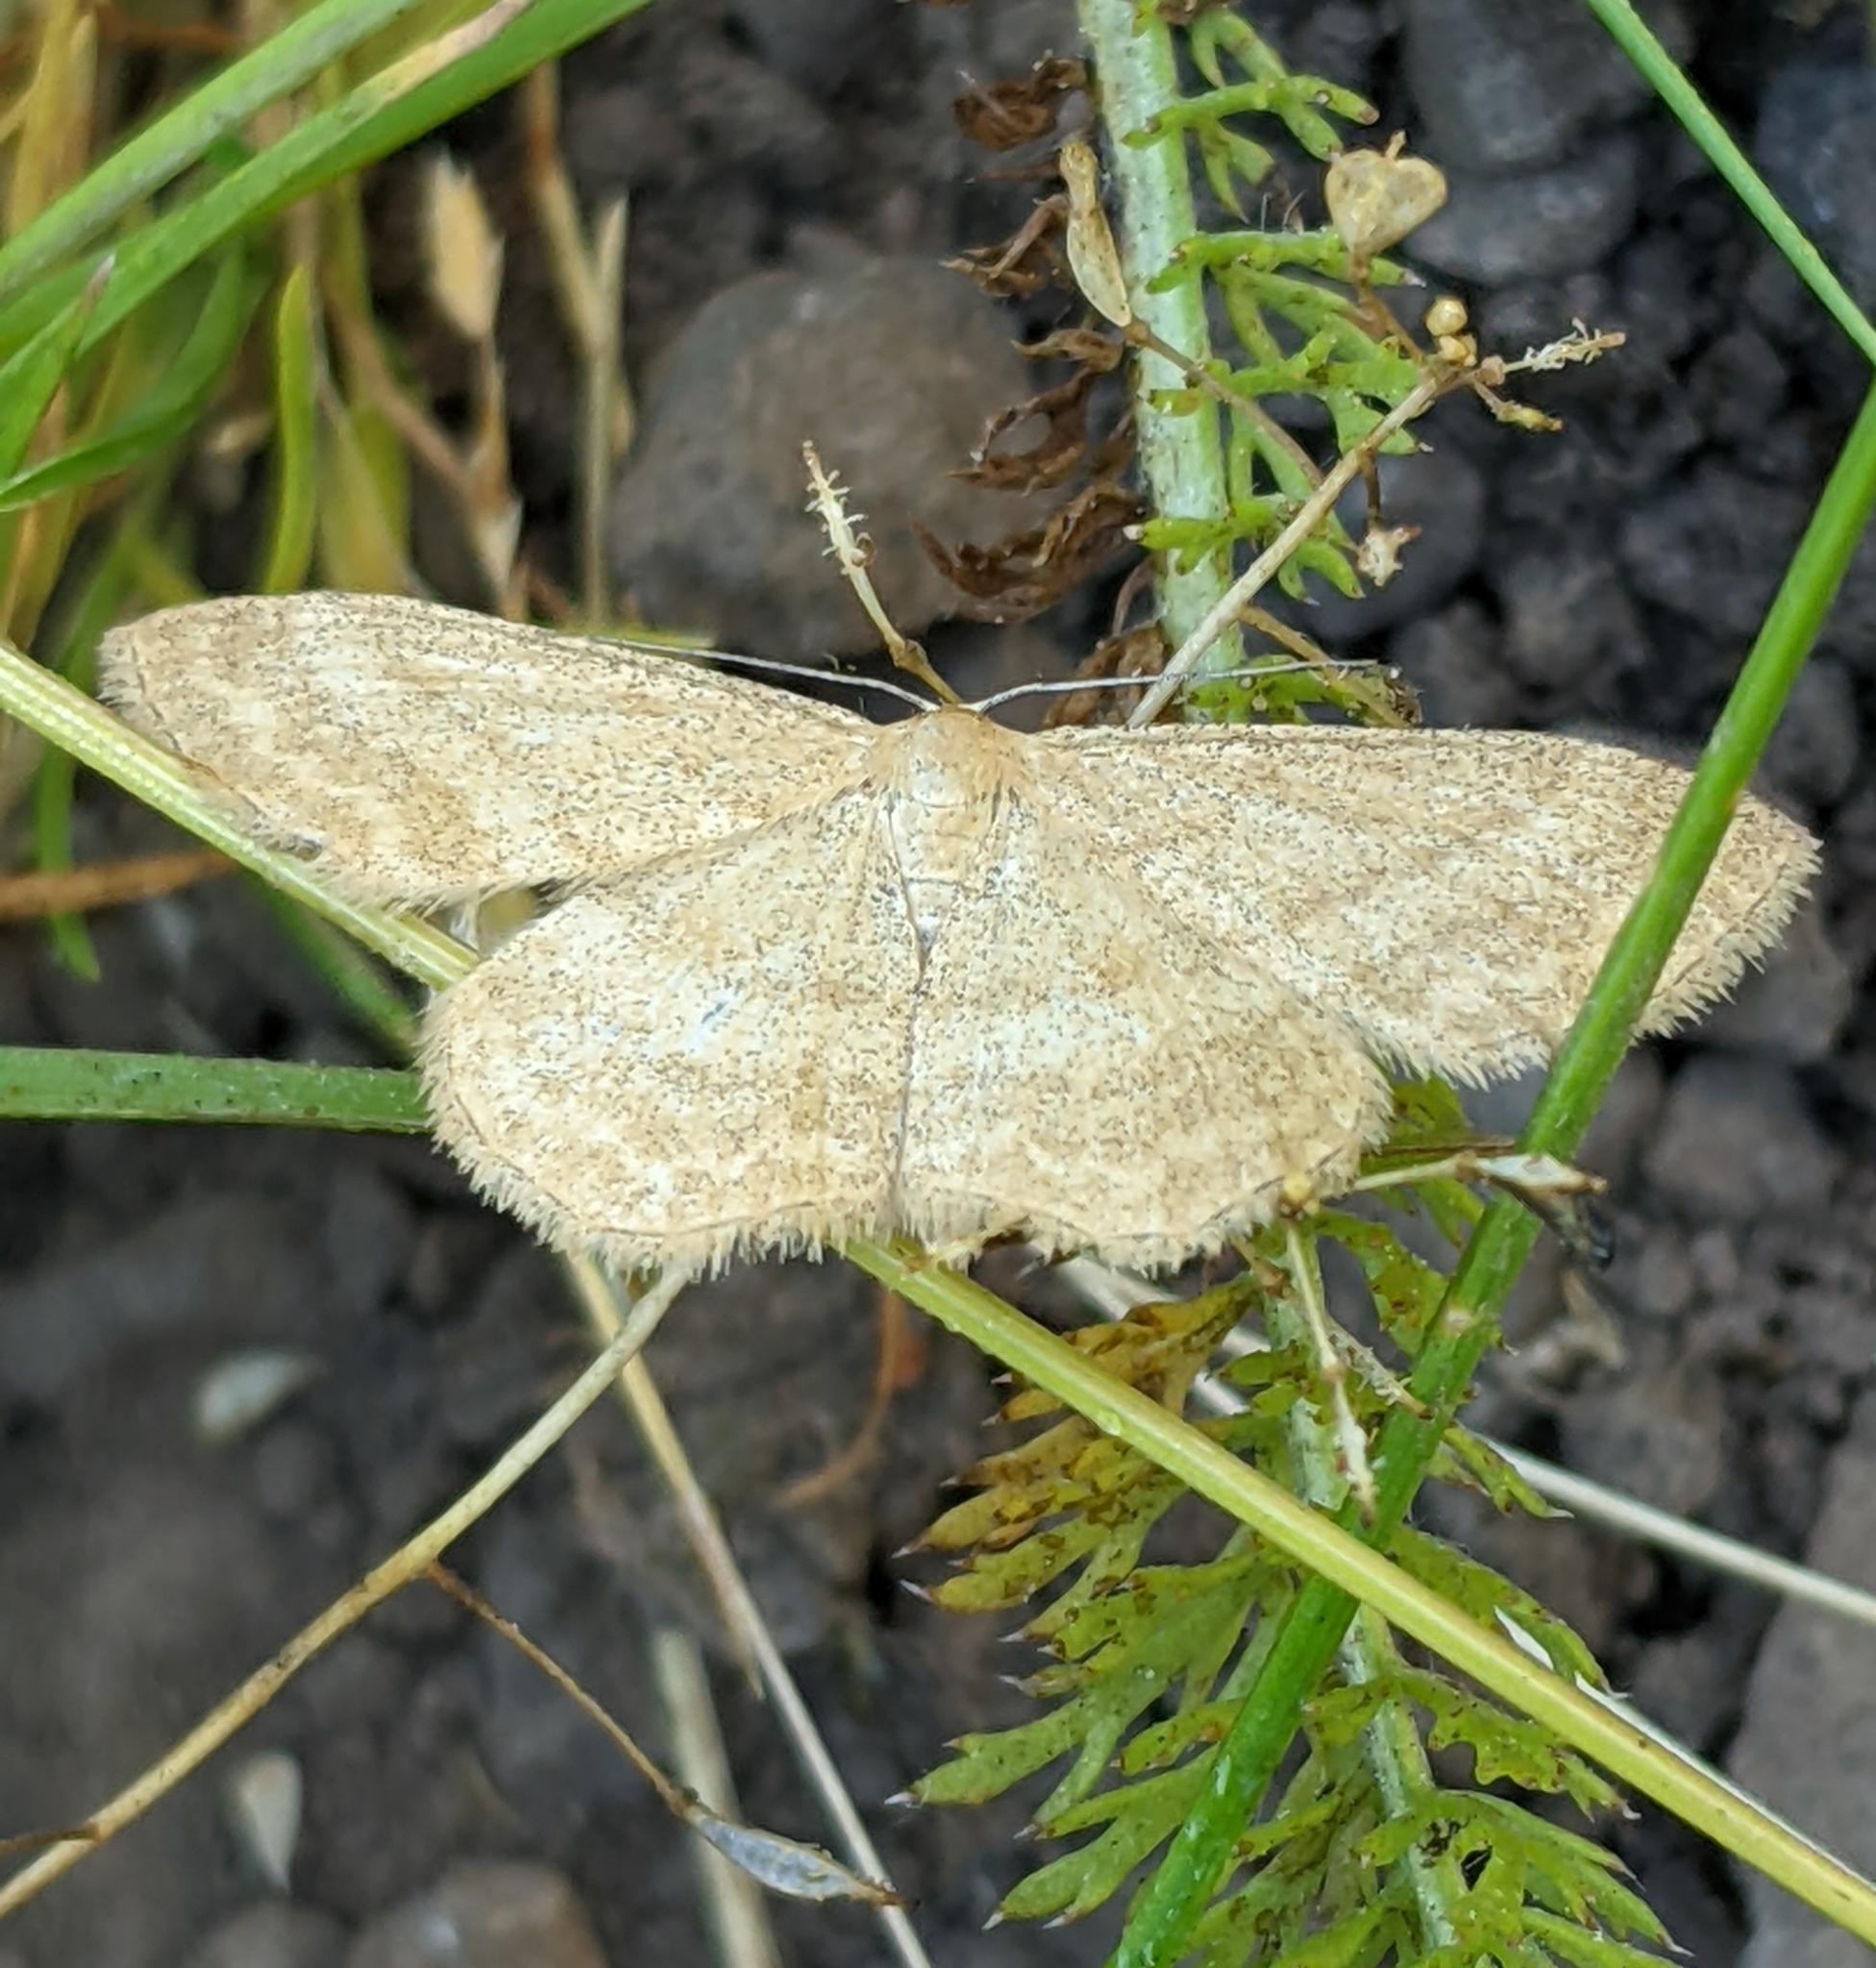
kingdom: Animalia
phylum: Arthropoda
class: Insecta
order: Lepidoptera
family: Geometridae
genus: Scopula
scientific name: Scopula luteolata
